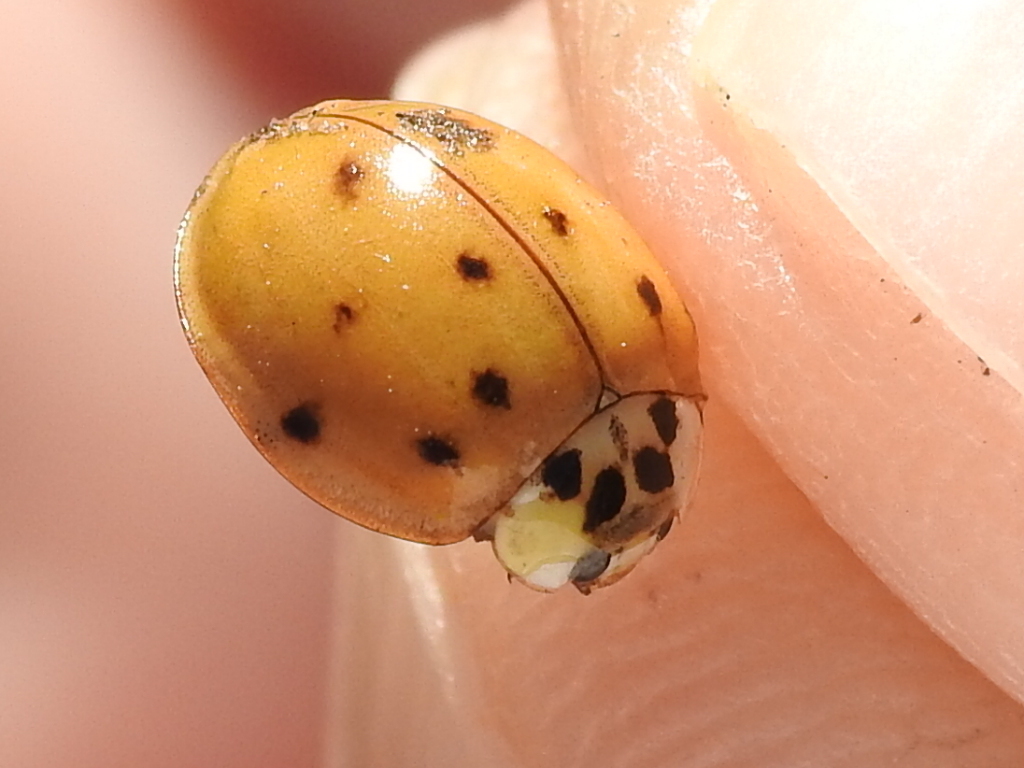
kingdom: Animalia
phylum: Arthropoda
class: Insecta
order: Coleoptera
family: Coccinellidae
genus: Harmonia
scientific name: Harmonia axyridis
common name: Harlequin ladybird
